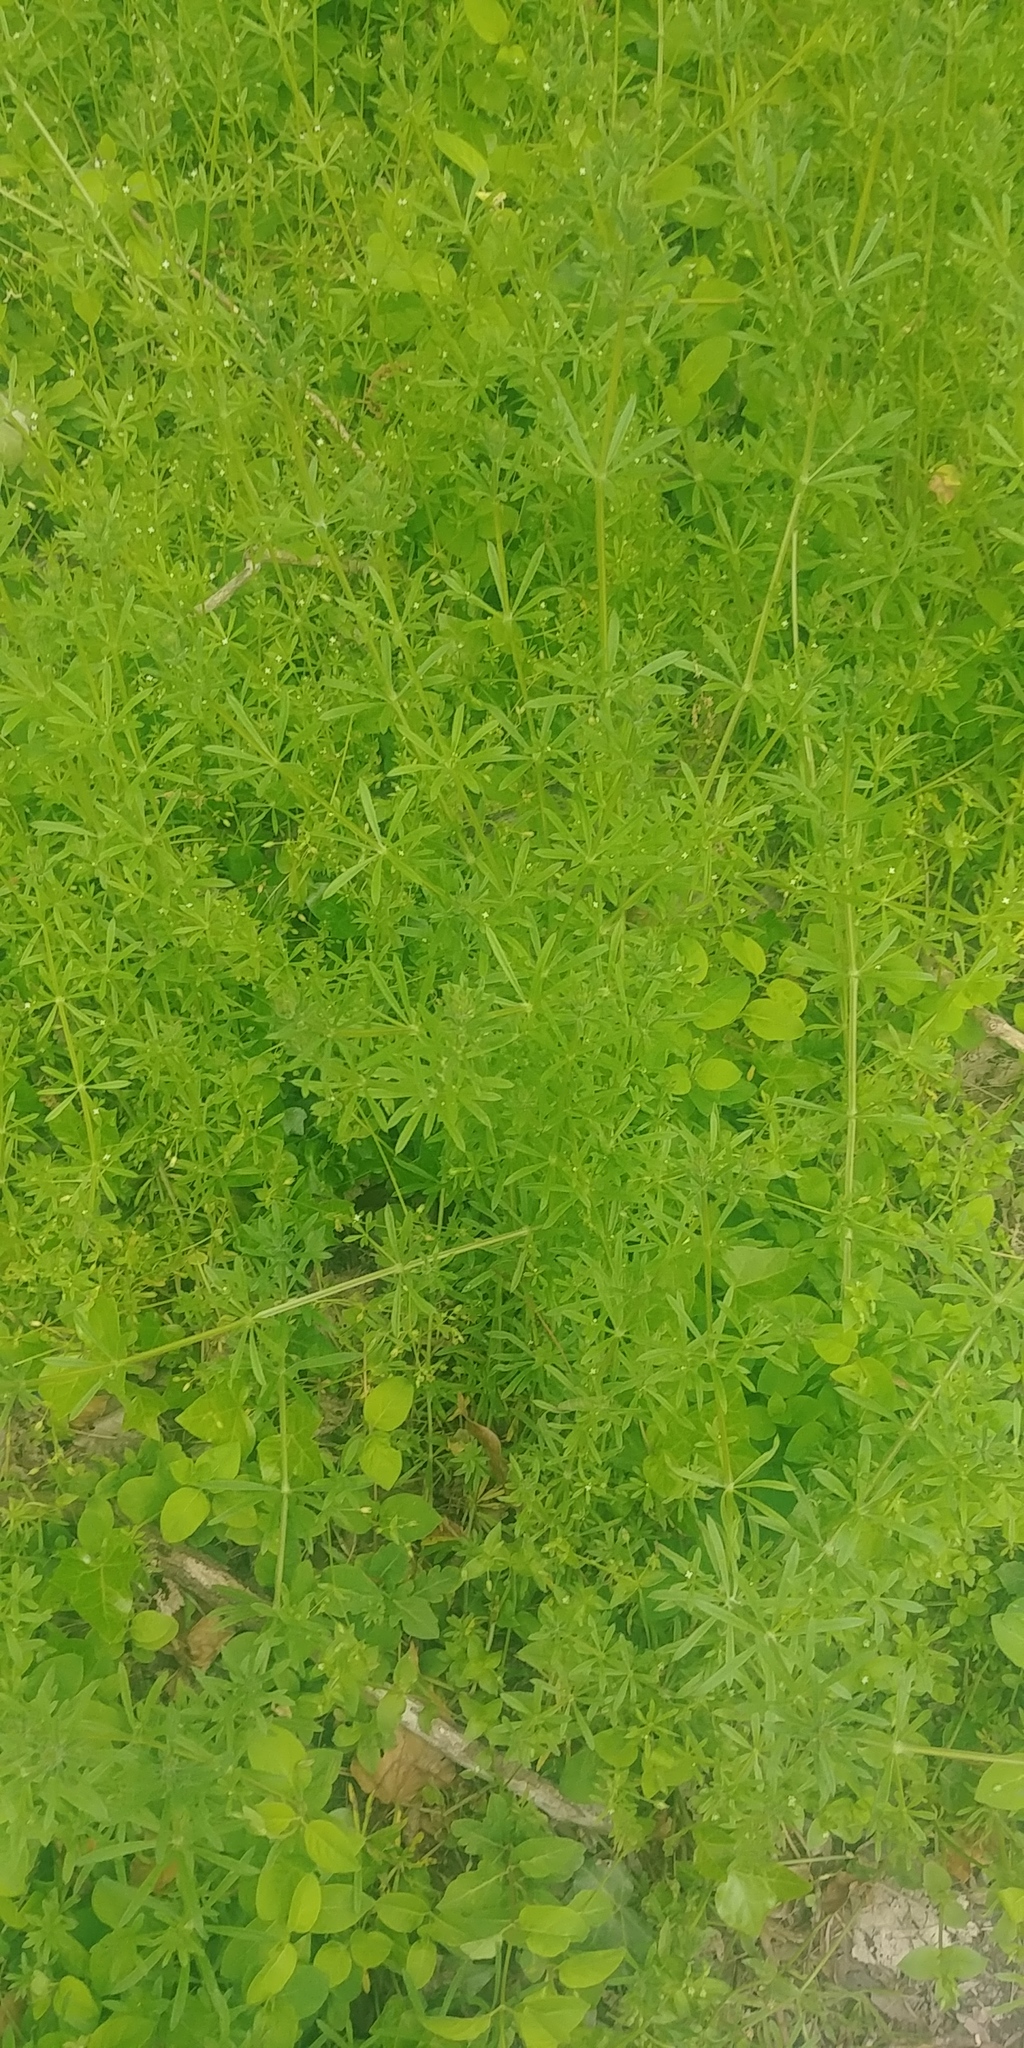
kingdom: Plantae
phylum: Tracheophyta
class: Magnoliopsida
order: Gentianales
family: Rubiaceae
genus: Galium
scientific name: Galium aparine
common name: Cleavers
